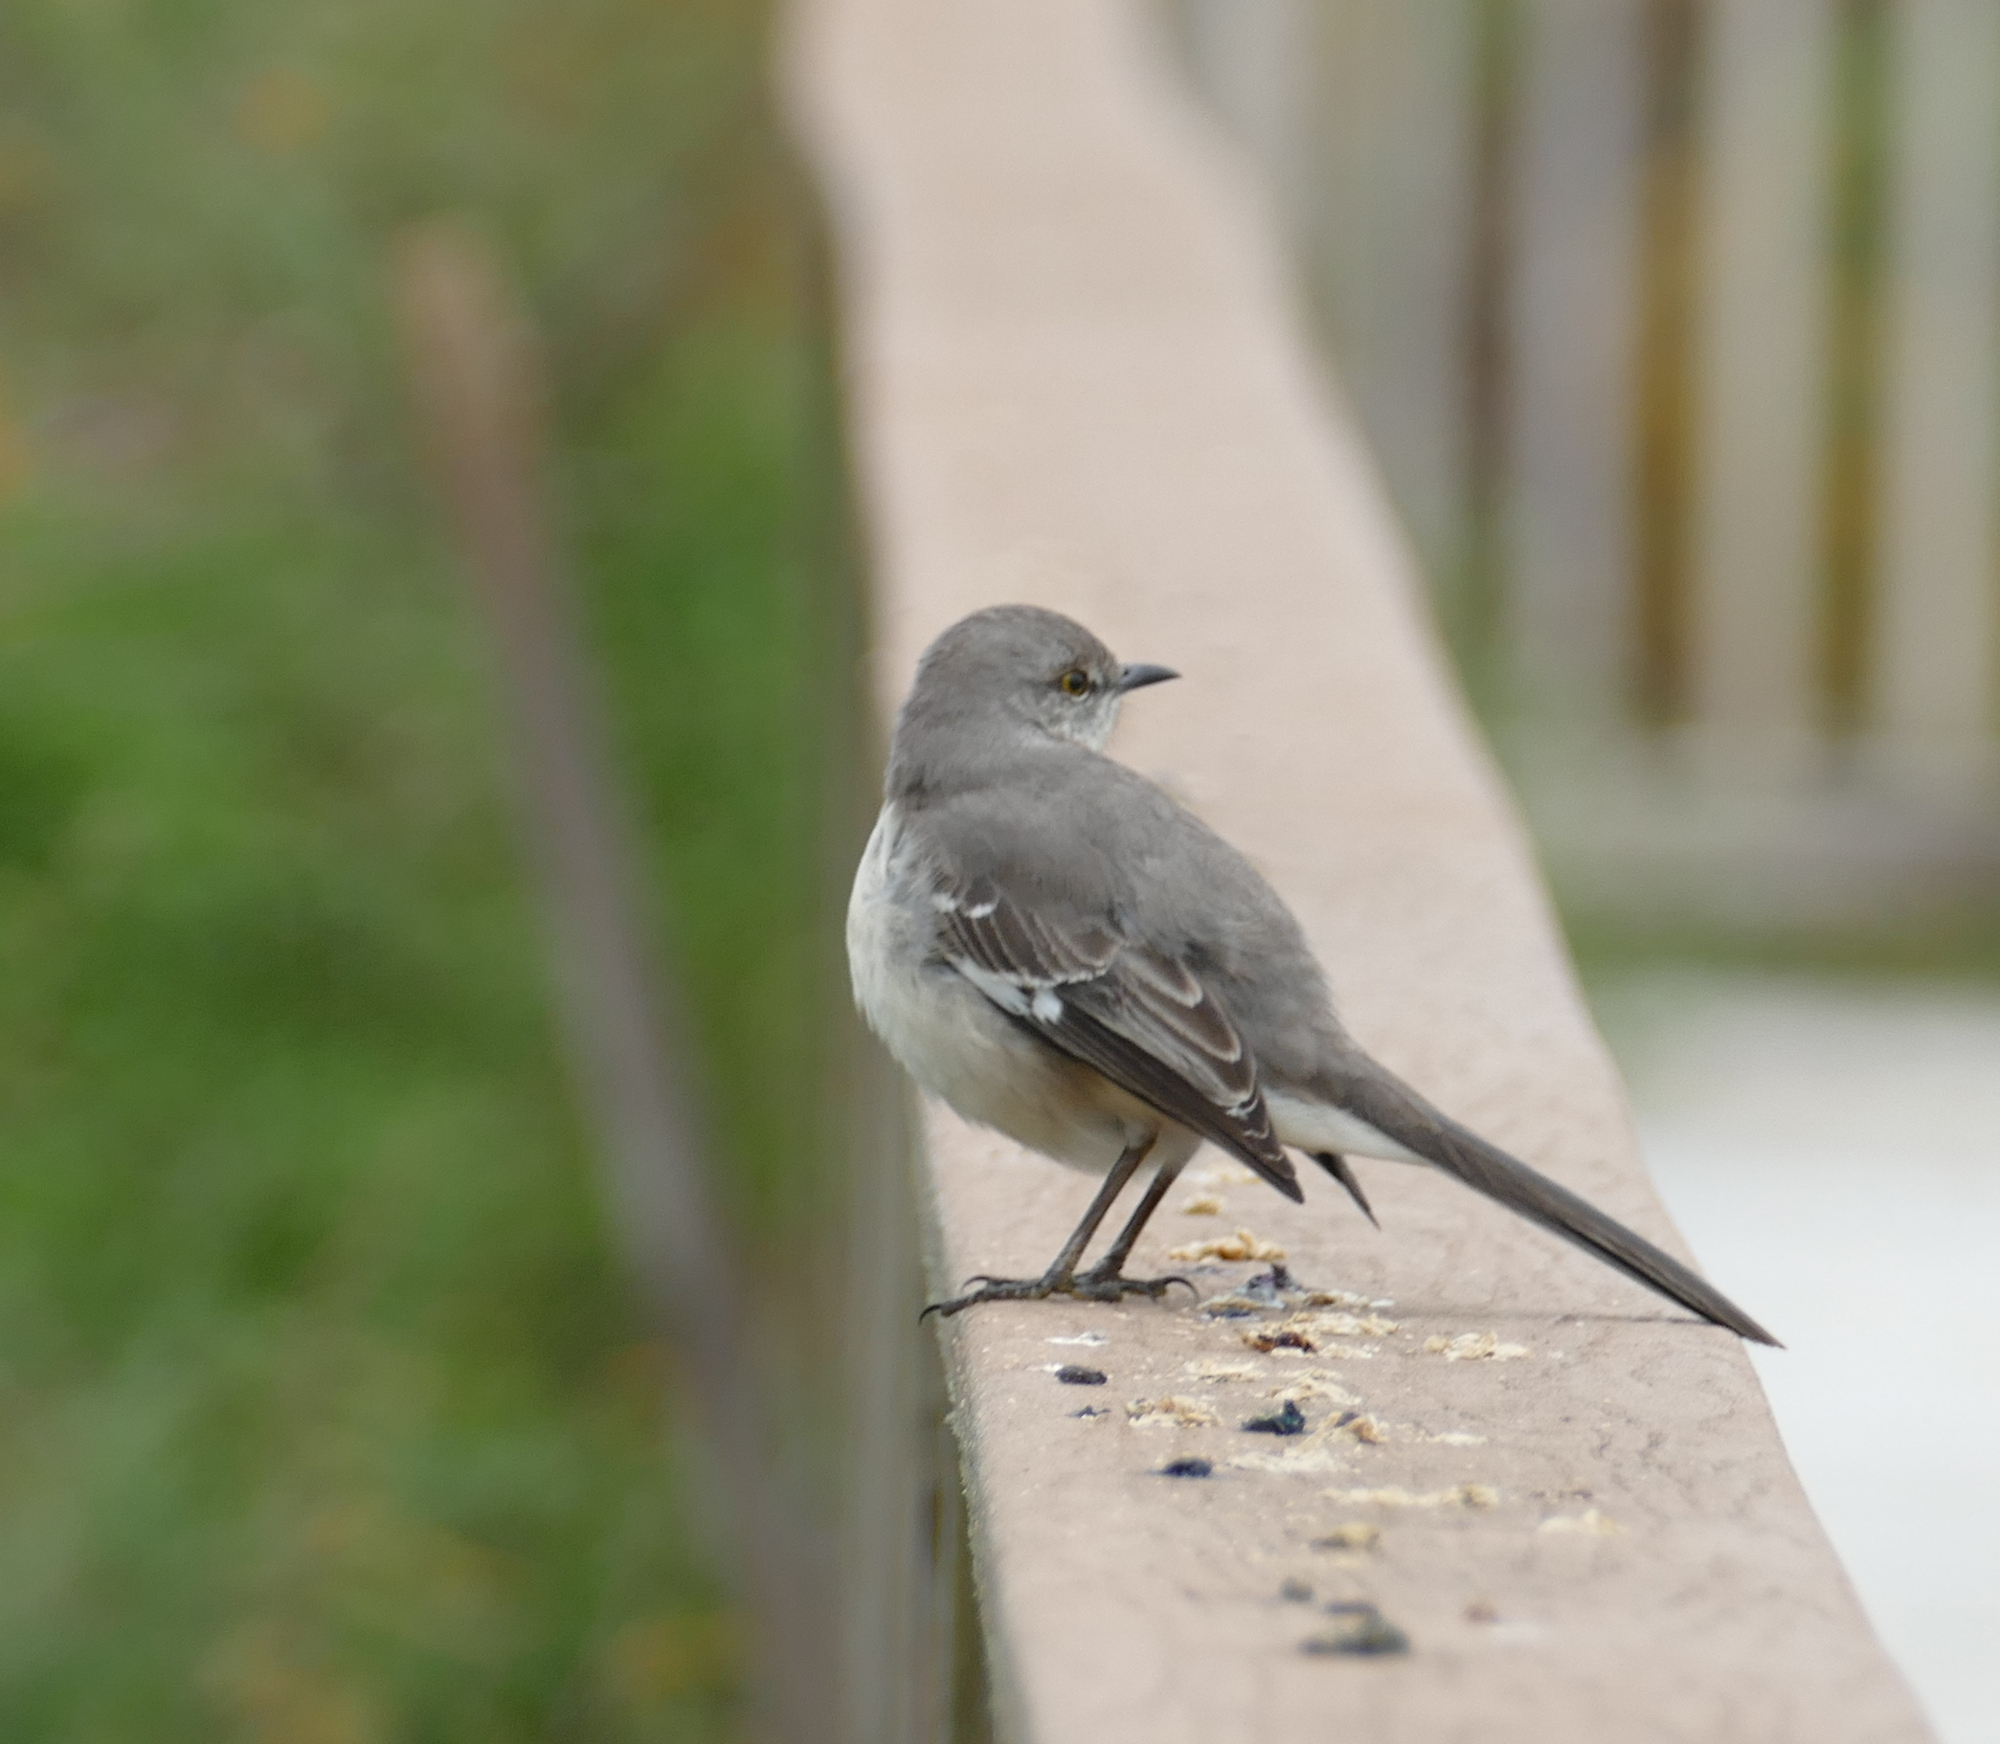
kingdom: Animalia
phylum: Chordata
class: Aves
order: Passeriformes
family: Mimidae
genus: Mimus
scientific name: Mimus polyglottos
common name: Northern mockingbird
